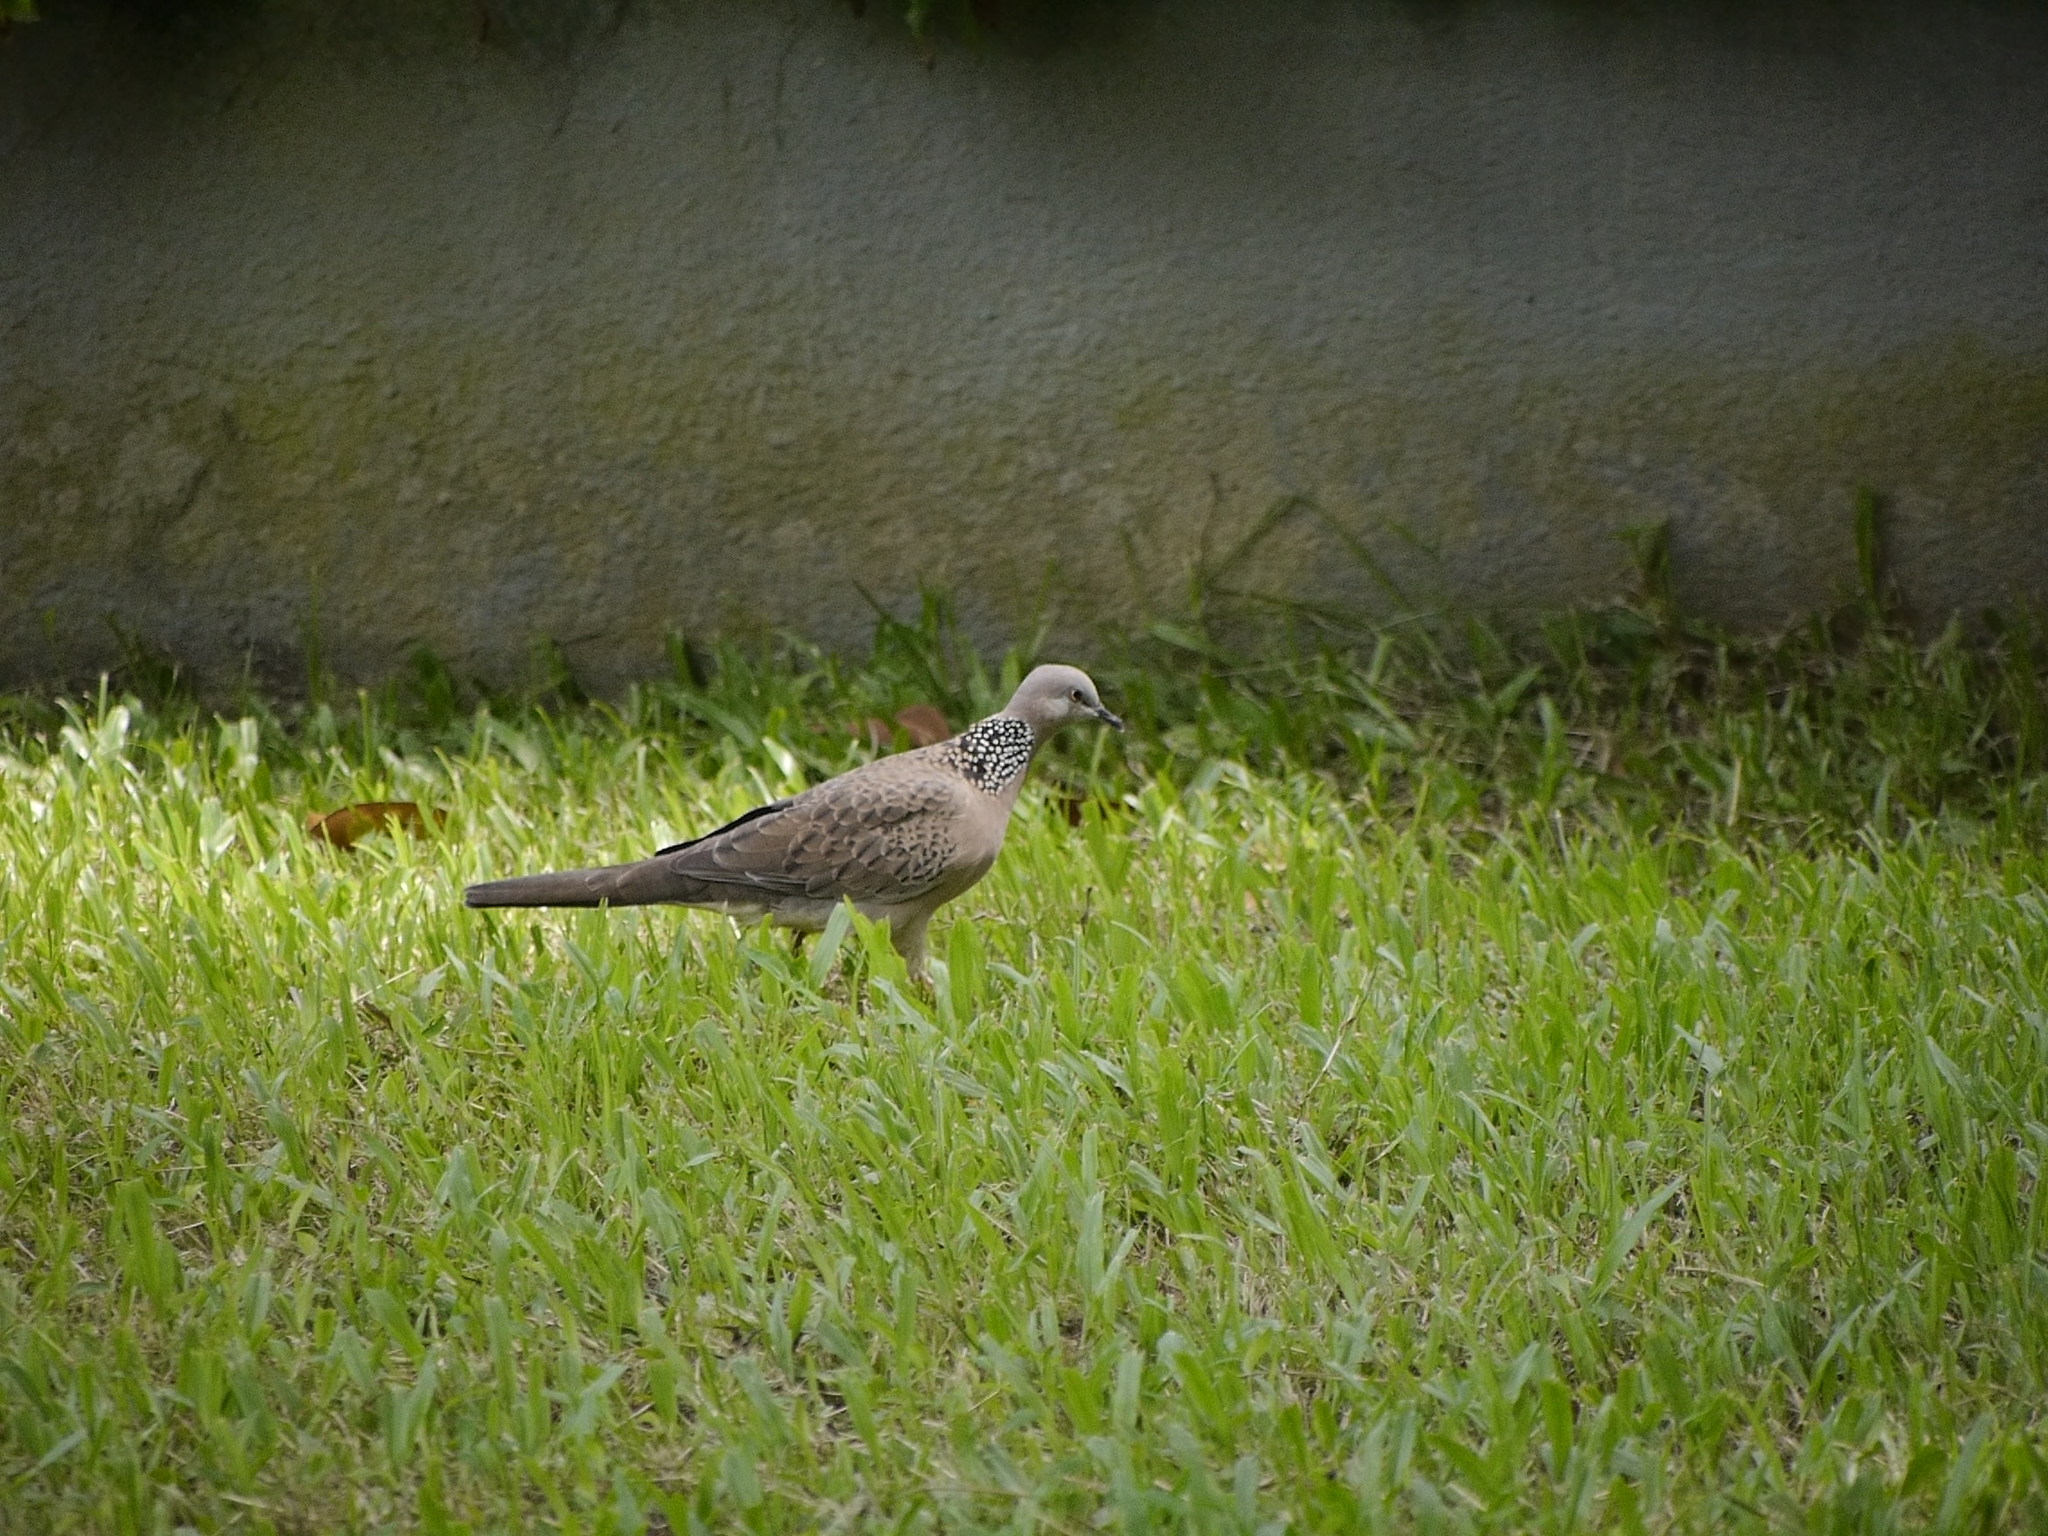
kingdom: Animalia
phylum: Chordata
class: Aves
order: Columbiformes
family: Columbidae
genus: Spilopelia
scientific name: Spilopelia chinensis
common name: Spotted dove
